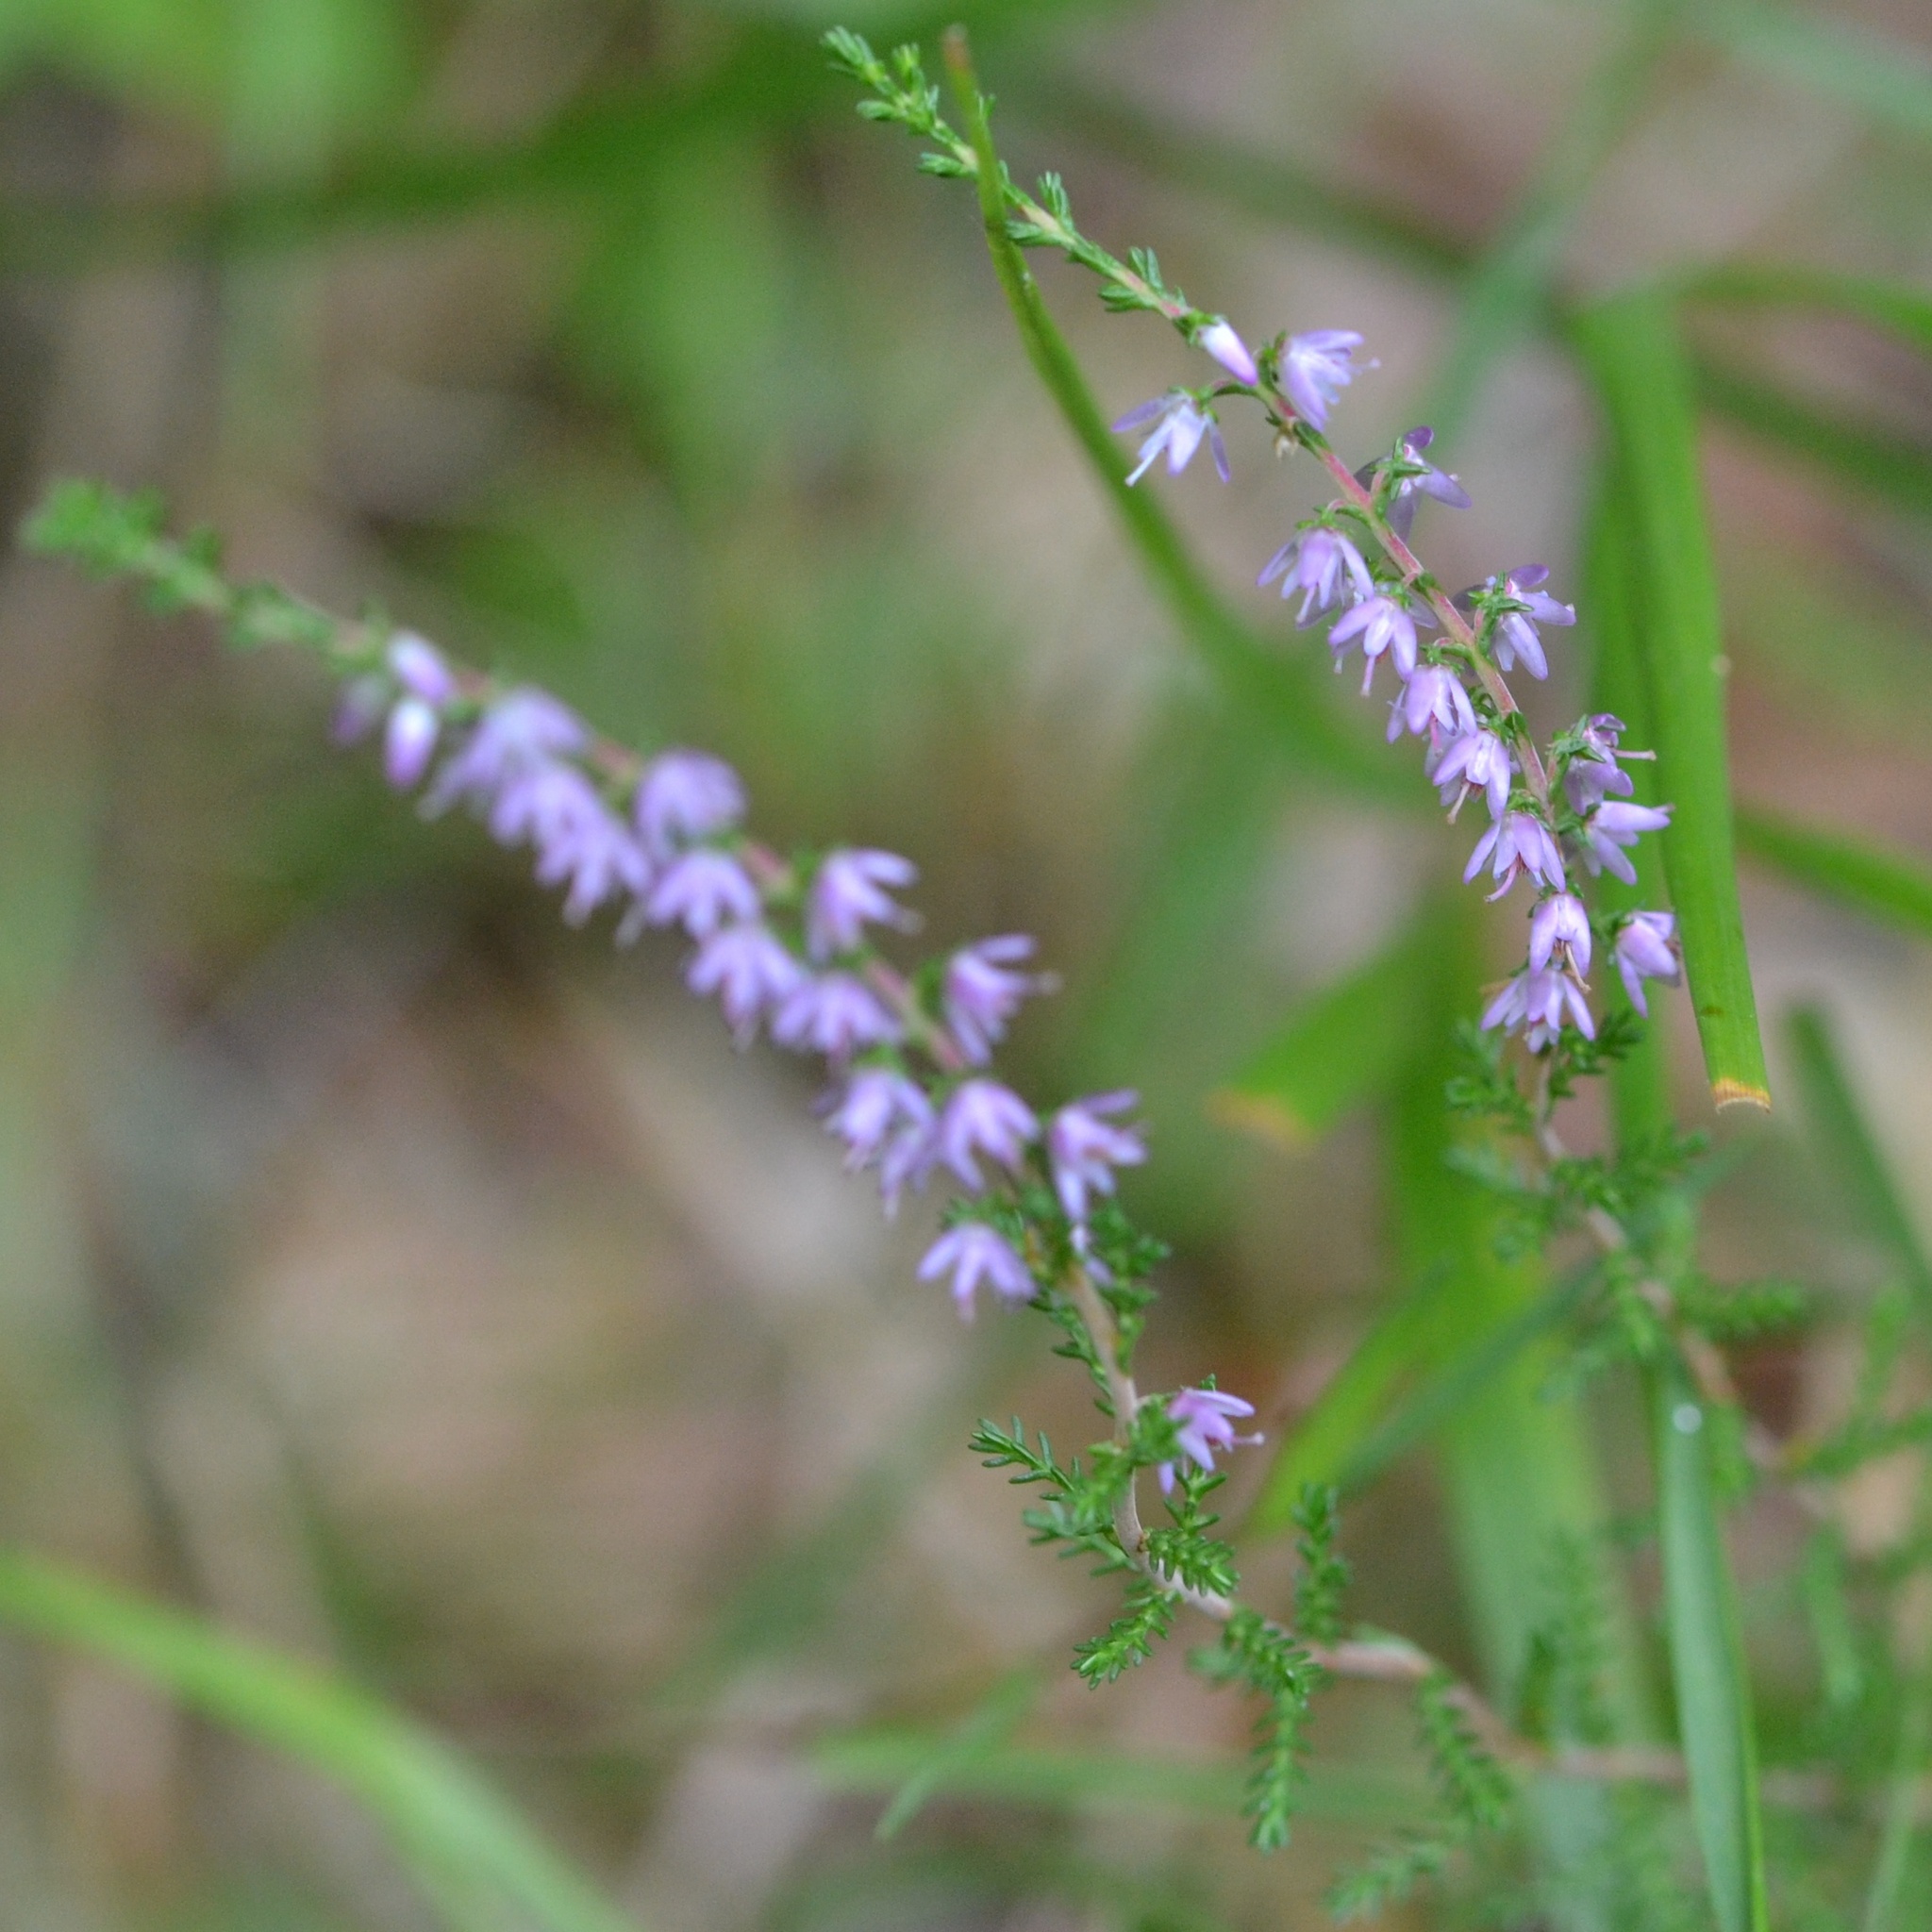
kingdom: Plantae
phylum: Tracheophyta
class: Magnoliopsida
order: Ericales
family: Ericaceae
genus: Calluna
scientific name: Calluna vulgaris
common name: Heather
